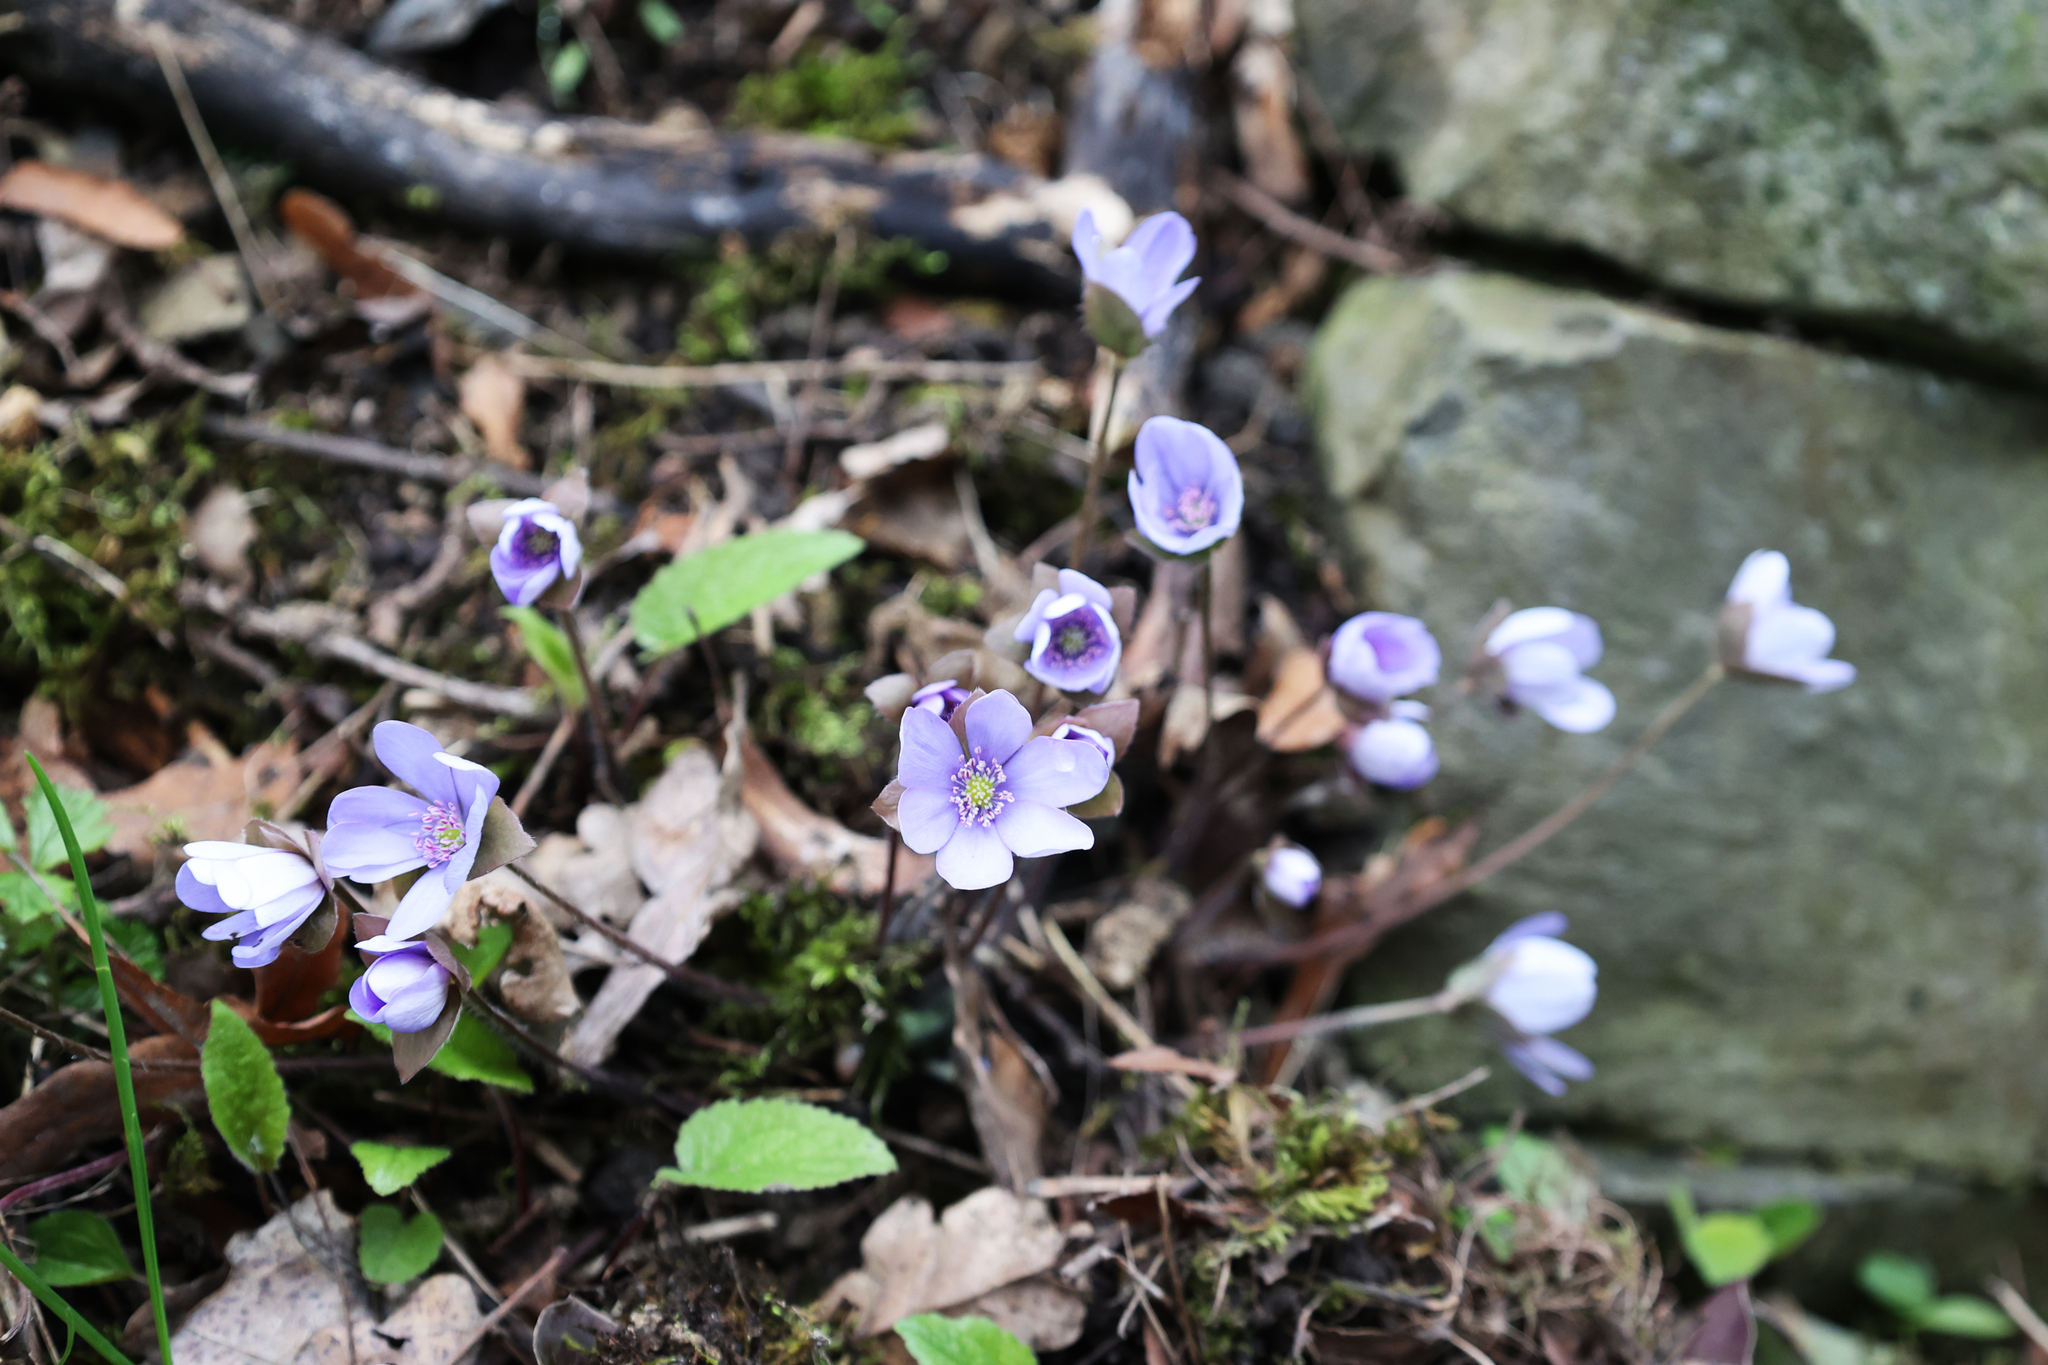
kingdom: Plantae
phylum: Tracheophyta
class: Magnoliopsida
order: Ranunculales
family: Ranunculaceae
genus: Hepatica
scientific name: Hepatica nobilis
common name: Liverleaf
